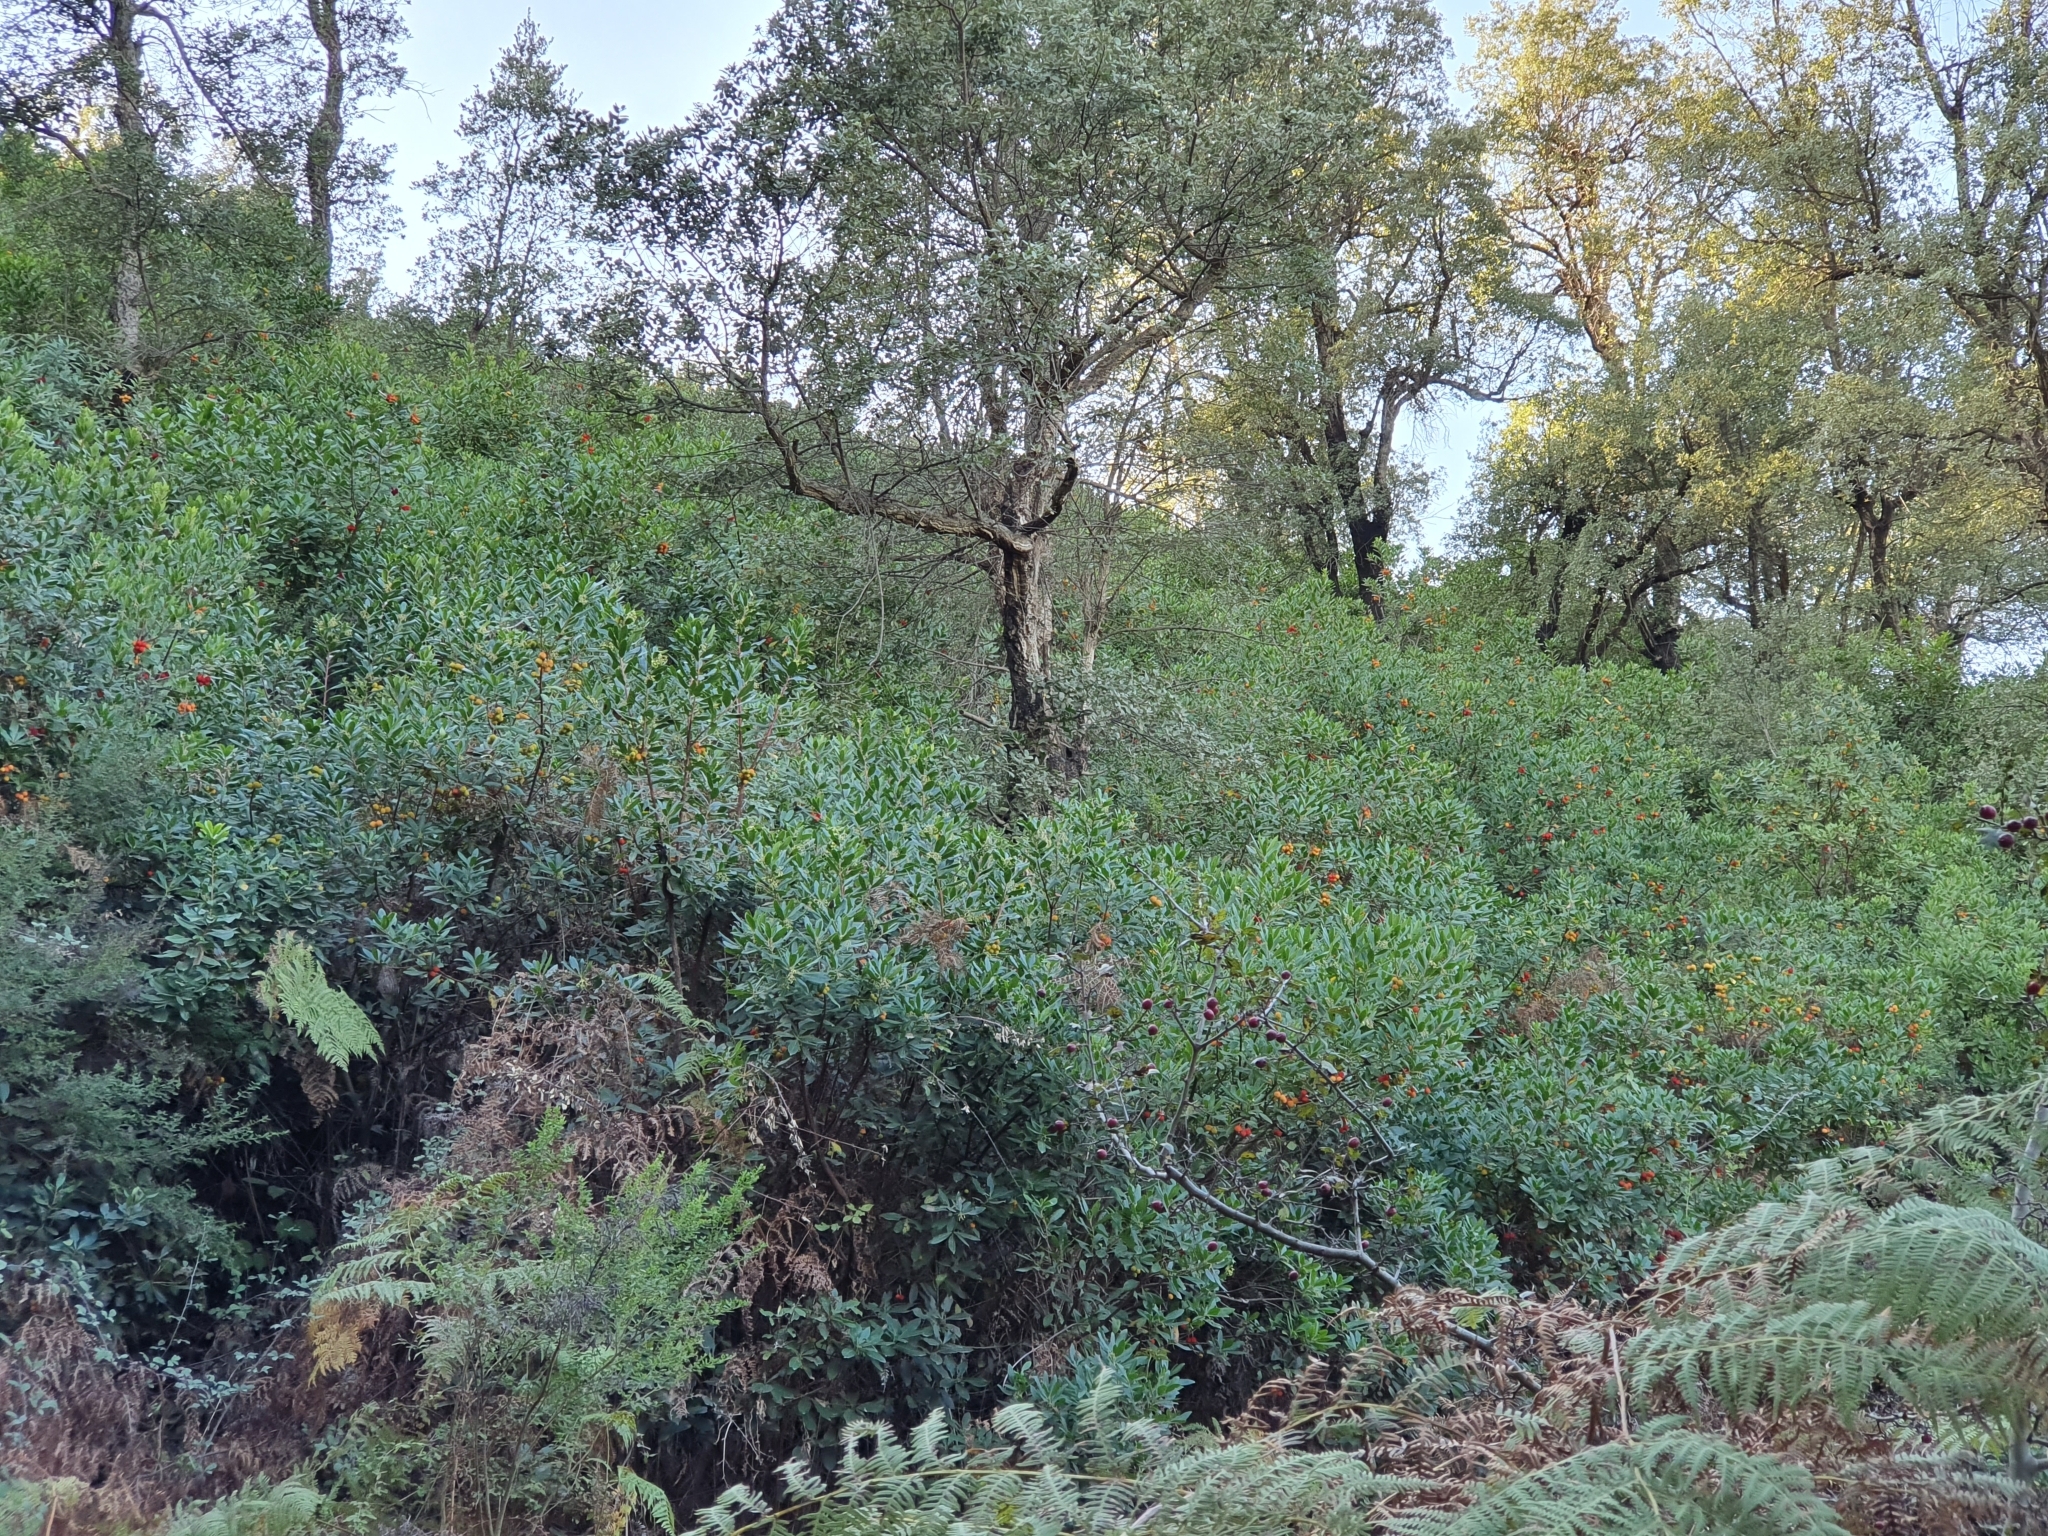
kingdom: Plantae
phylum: Tracheophyta
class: Magnoliopsida
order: Ericales
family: Ericaceae
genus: Arbutus
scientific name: Arbutus unedo
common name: Strawberry-tree
